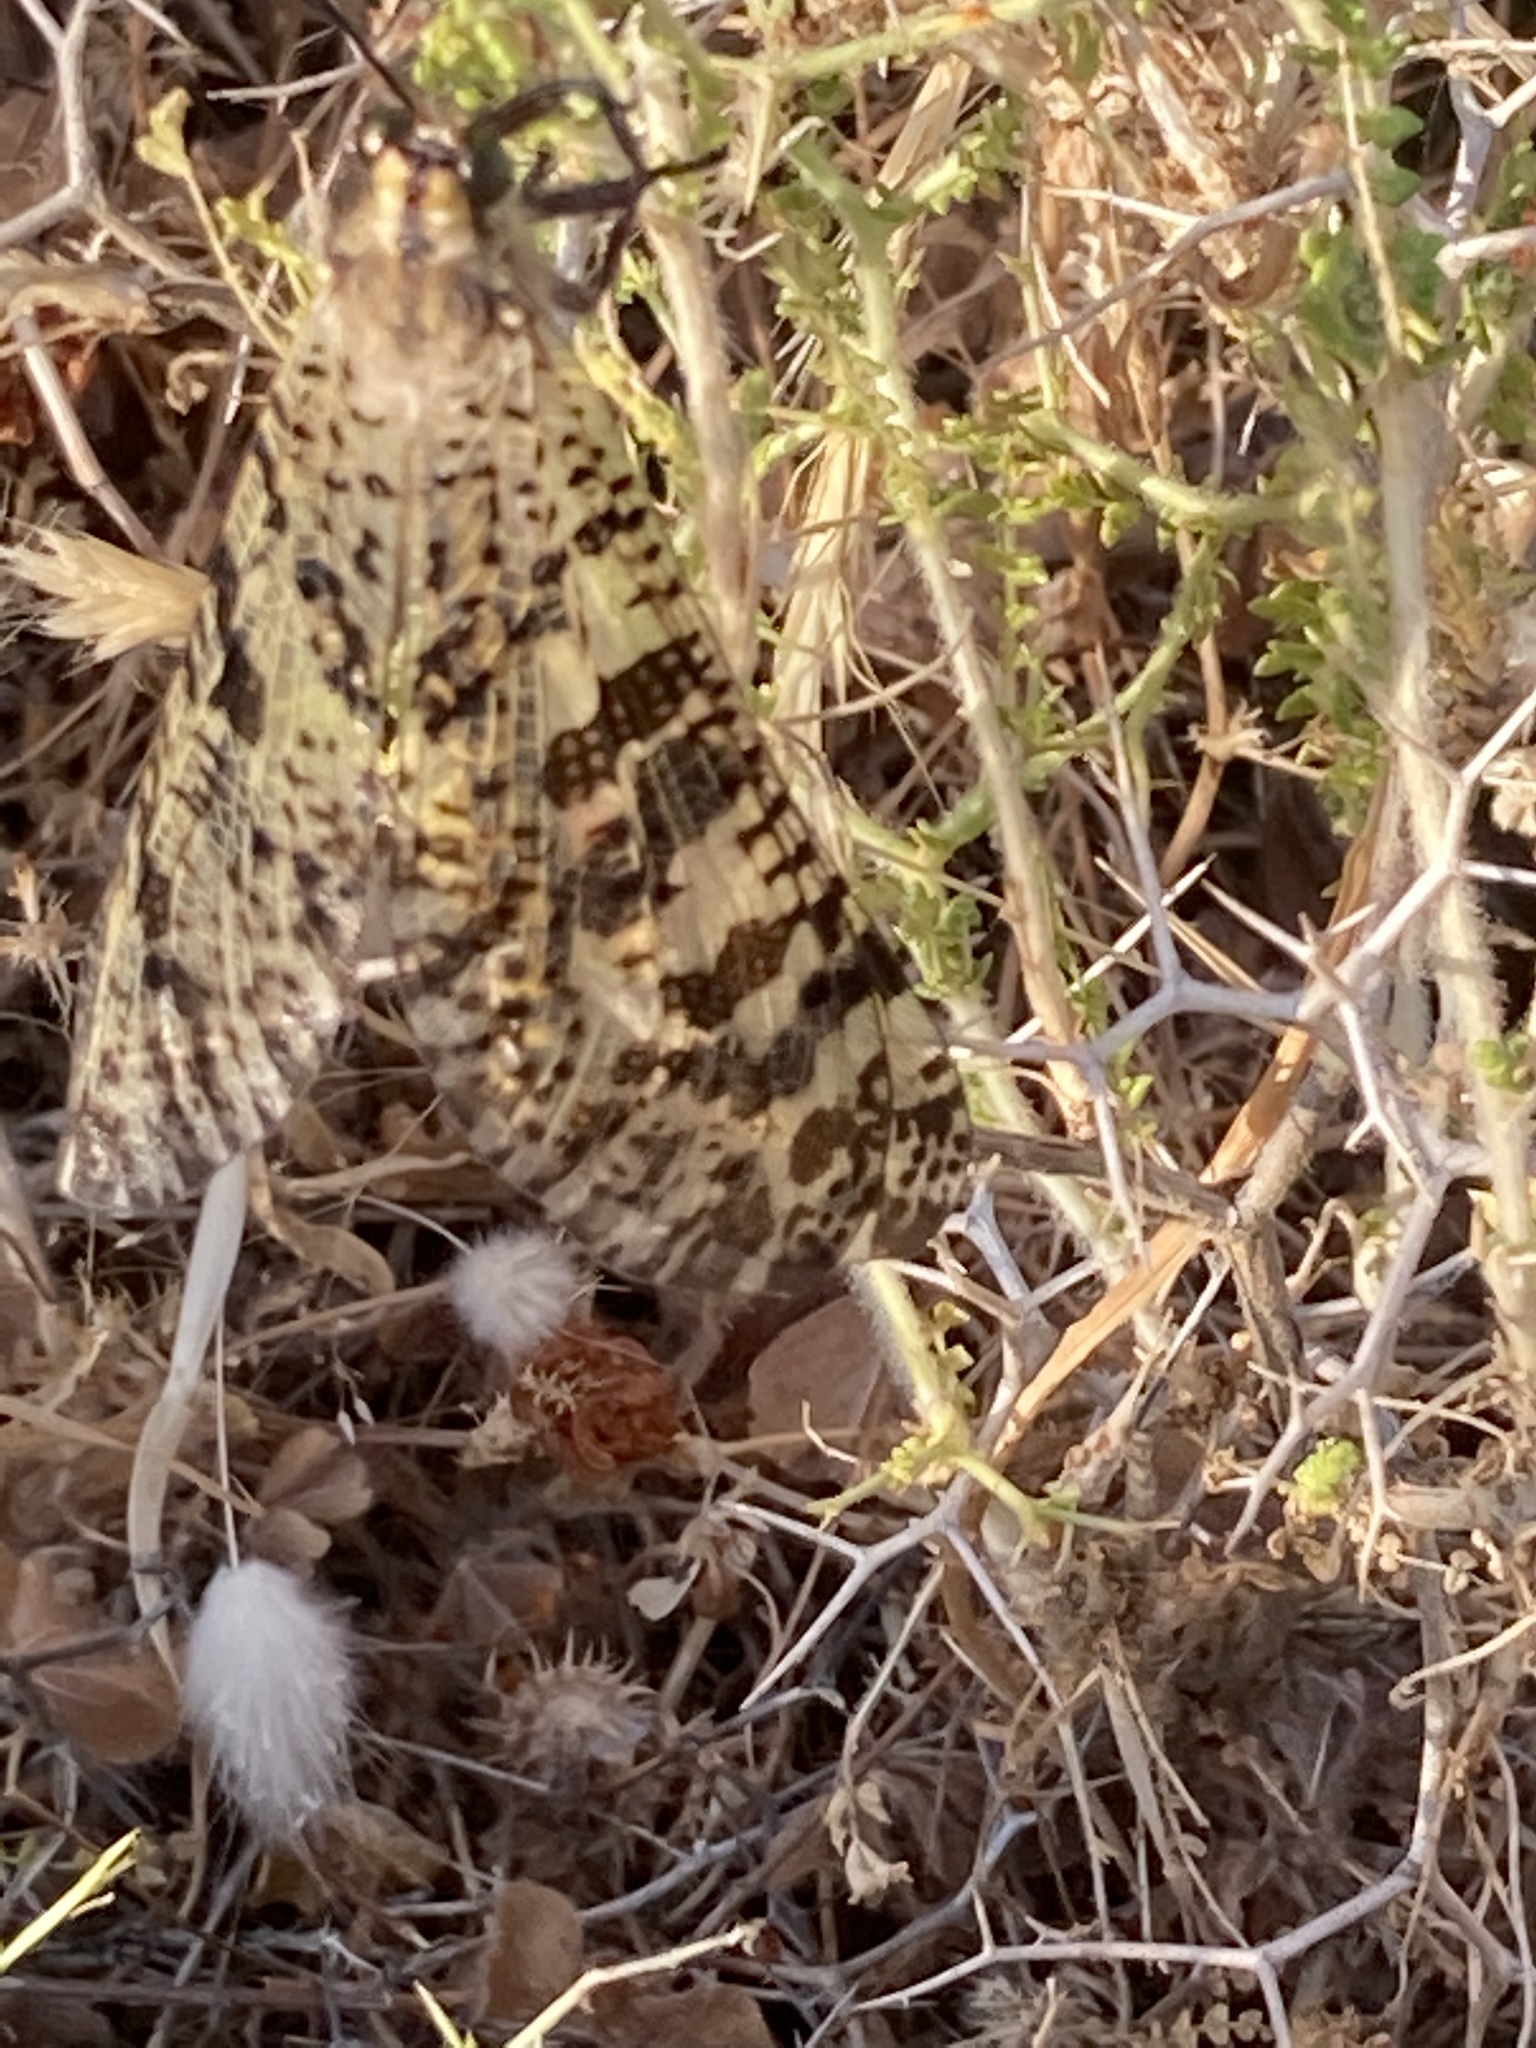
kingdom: Animalia
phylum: Arthropoda
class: Insecta
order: Neuroptera
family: Myrmeleontidae
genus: Palpares
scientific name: Palpares libelluloides
